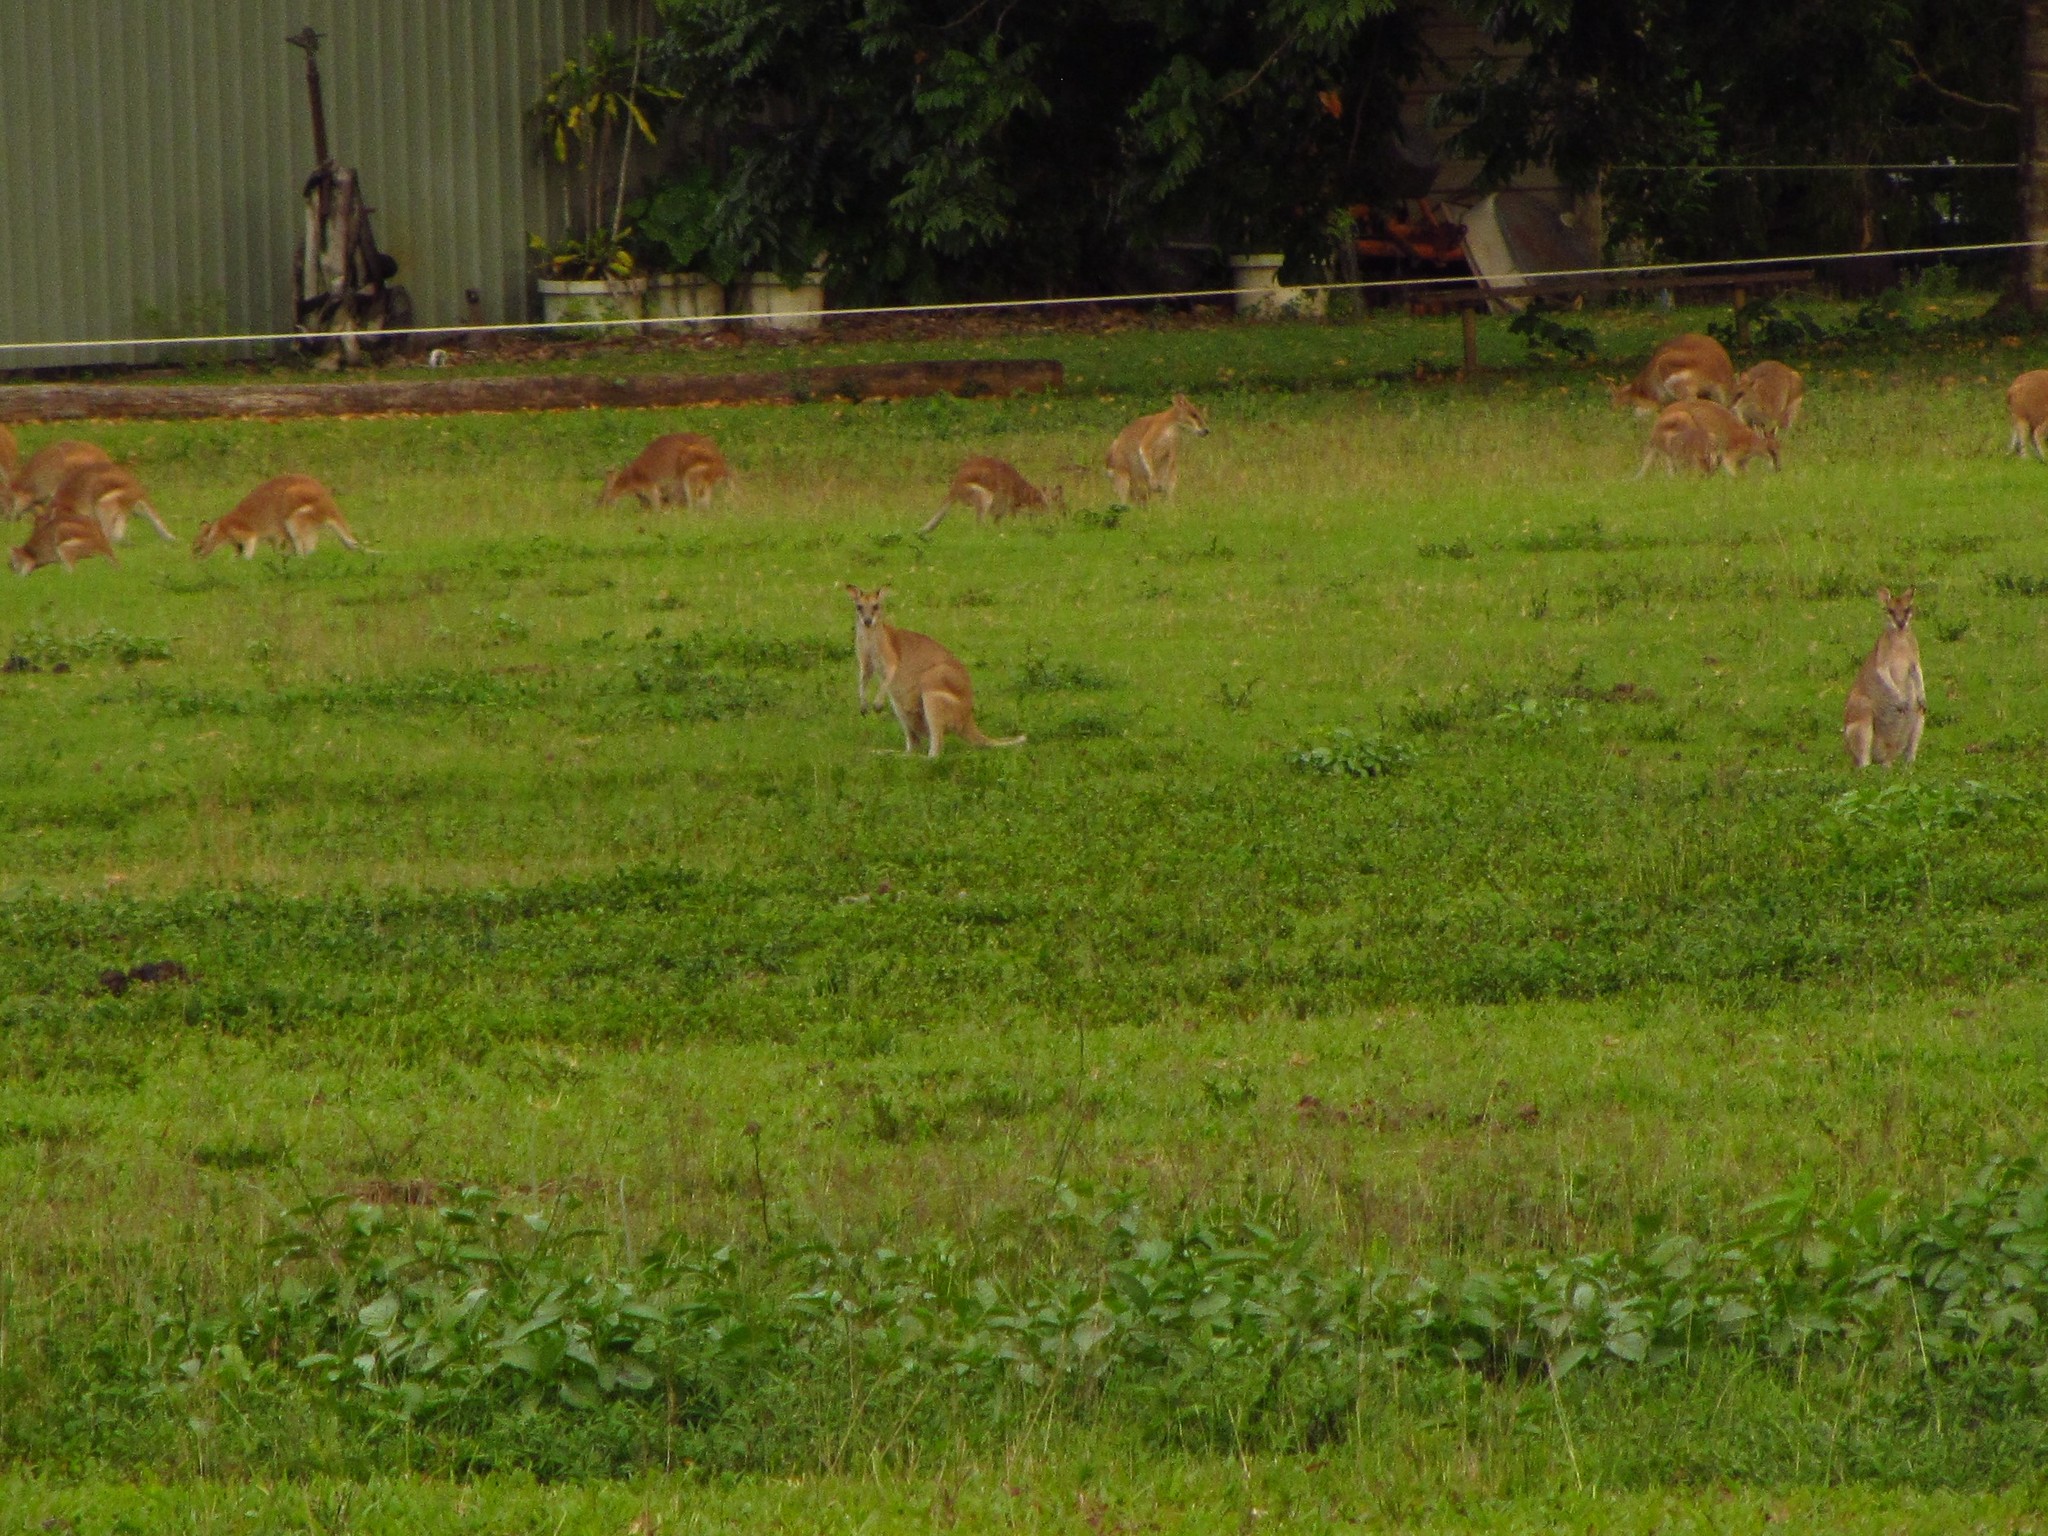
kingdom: Animalia
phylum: Chordata
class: Mammalia
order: Diprotodontia
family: Macropodidae
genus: Macropus
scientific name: Macropus agilis
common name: Agile wallaby
